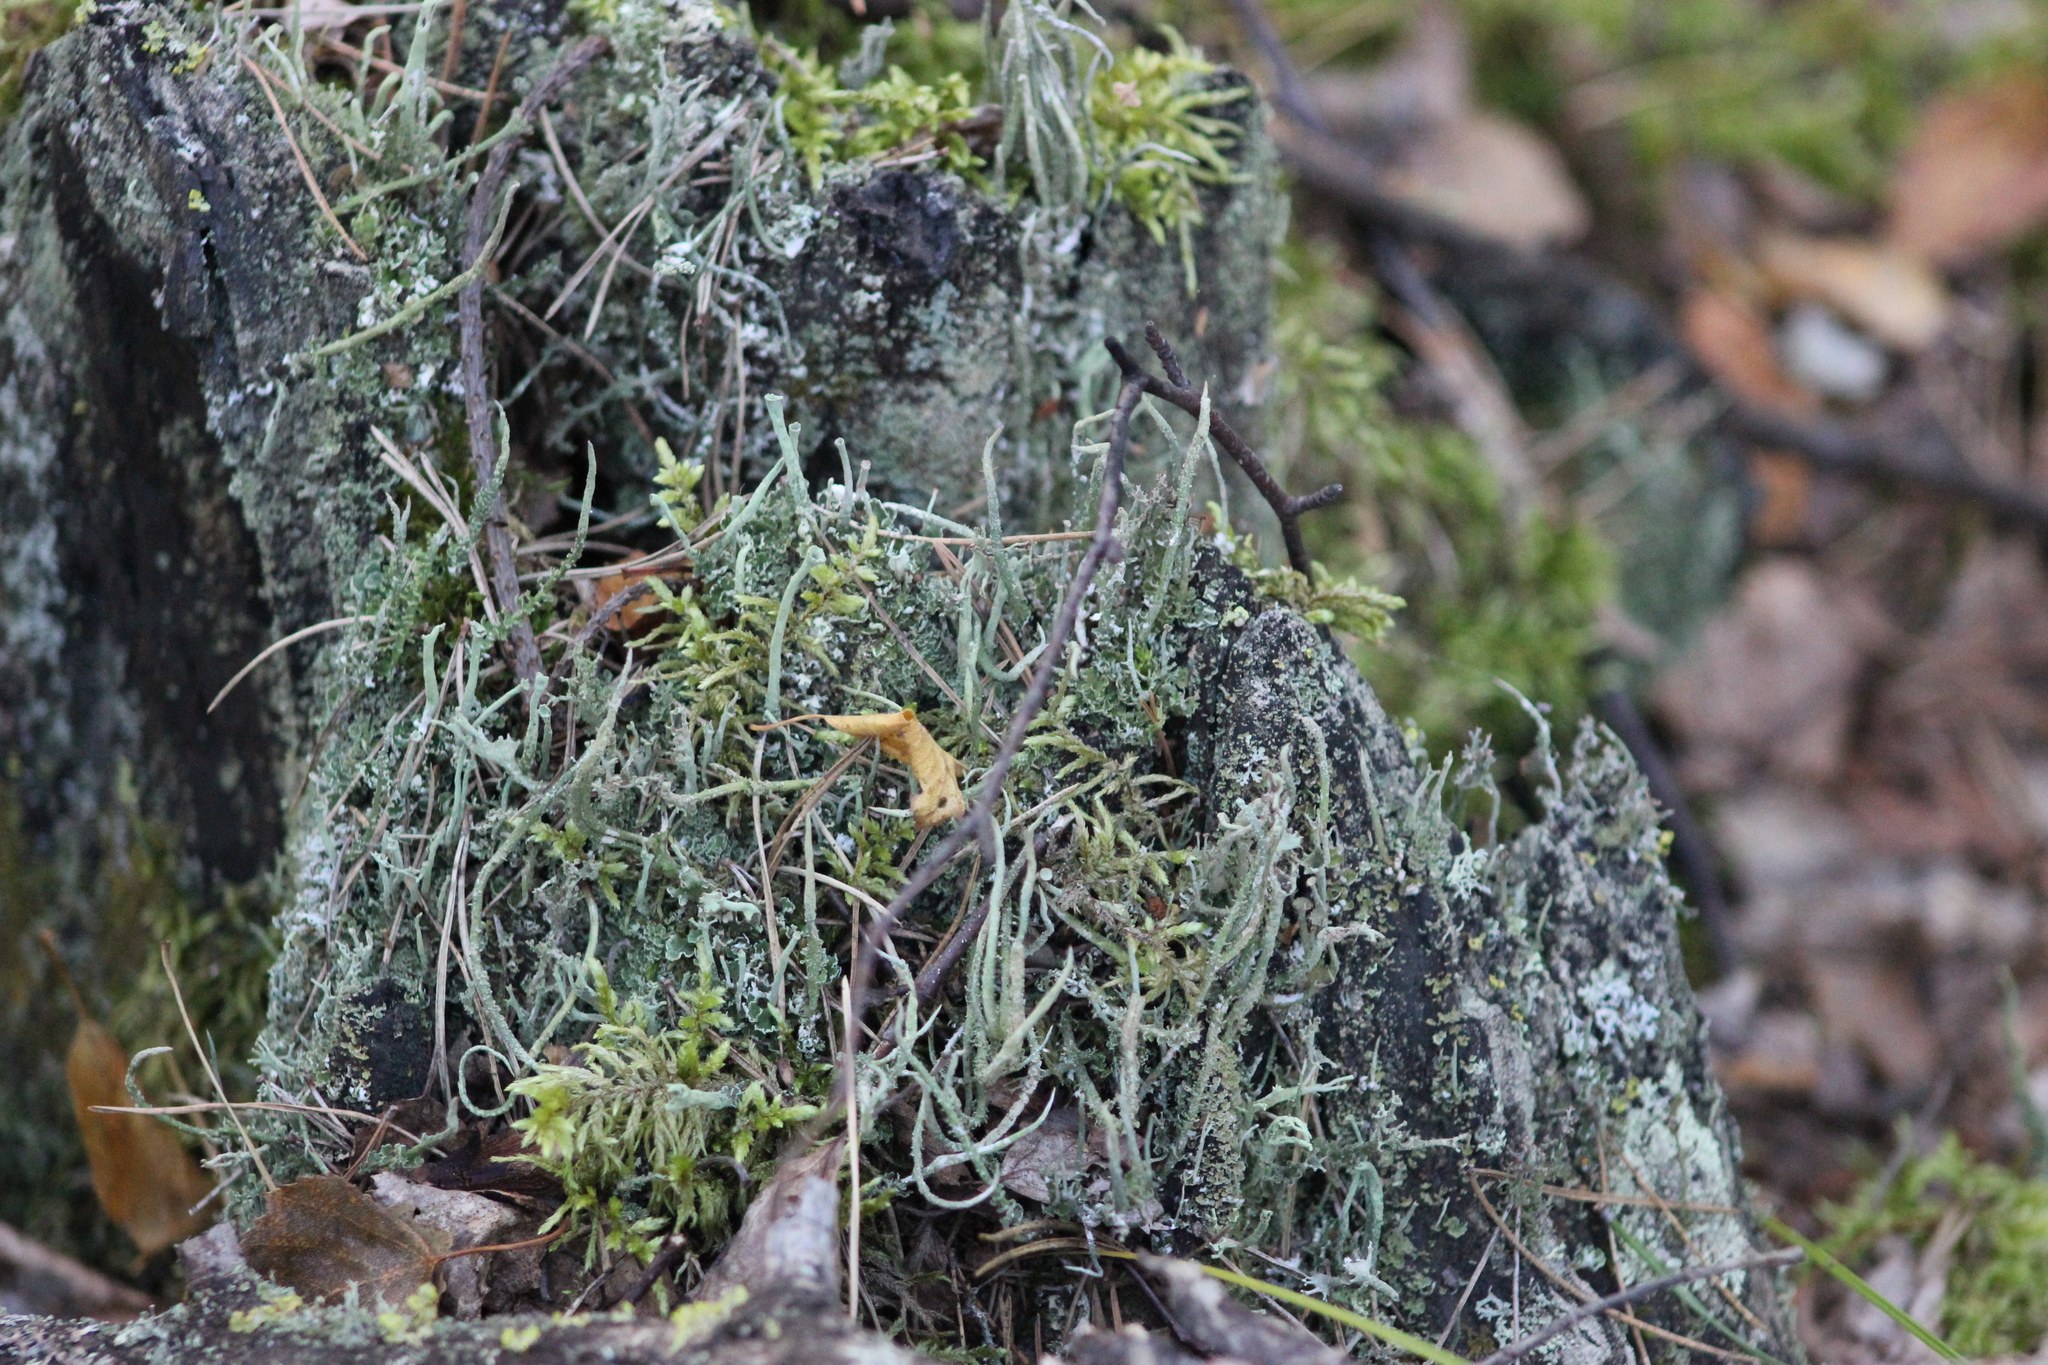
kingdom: Fungi
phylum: Ascomycota
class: Lecanoromycetes
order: Lecanorales
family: Cladoniaceae
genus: Cladonia
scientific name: Cladonia cornuta
